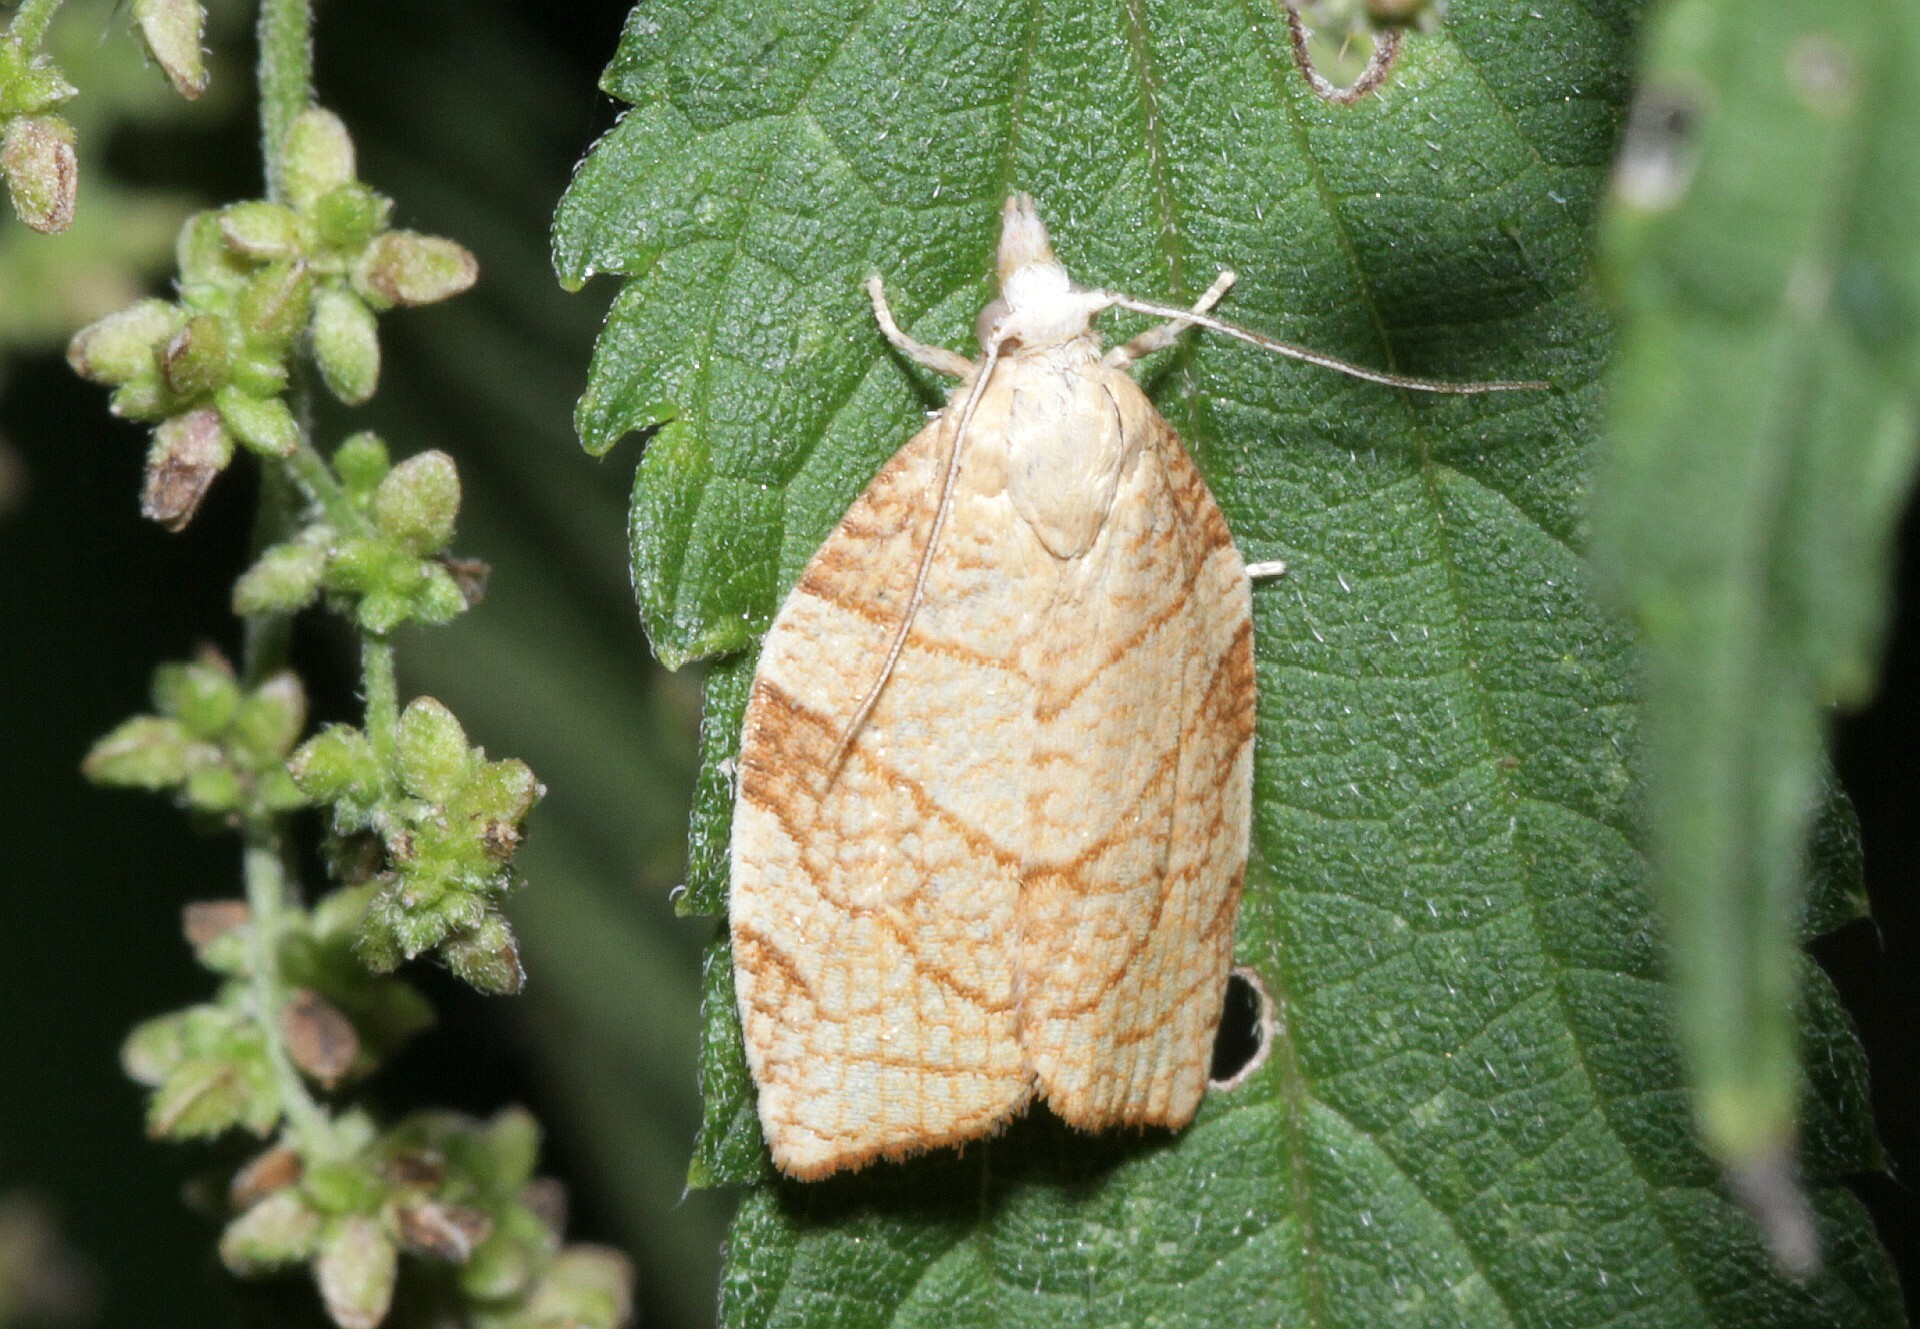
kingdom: Animalia
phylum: Arthropoda
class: Insecta
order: Lepidoptera
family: Tortricidae
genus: Pandemis
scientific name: Pandemis corylana
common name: Chequered fruit-tree tortrix
